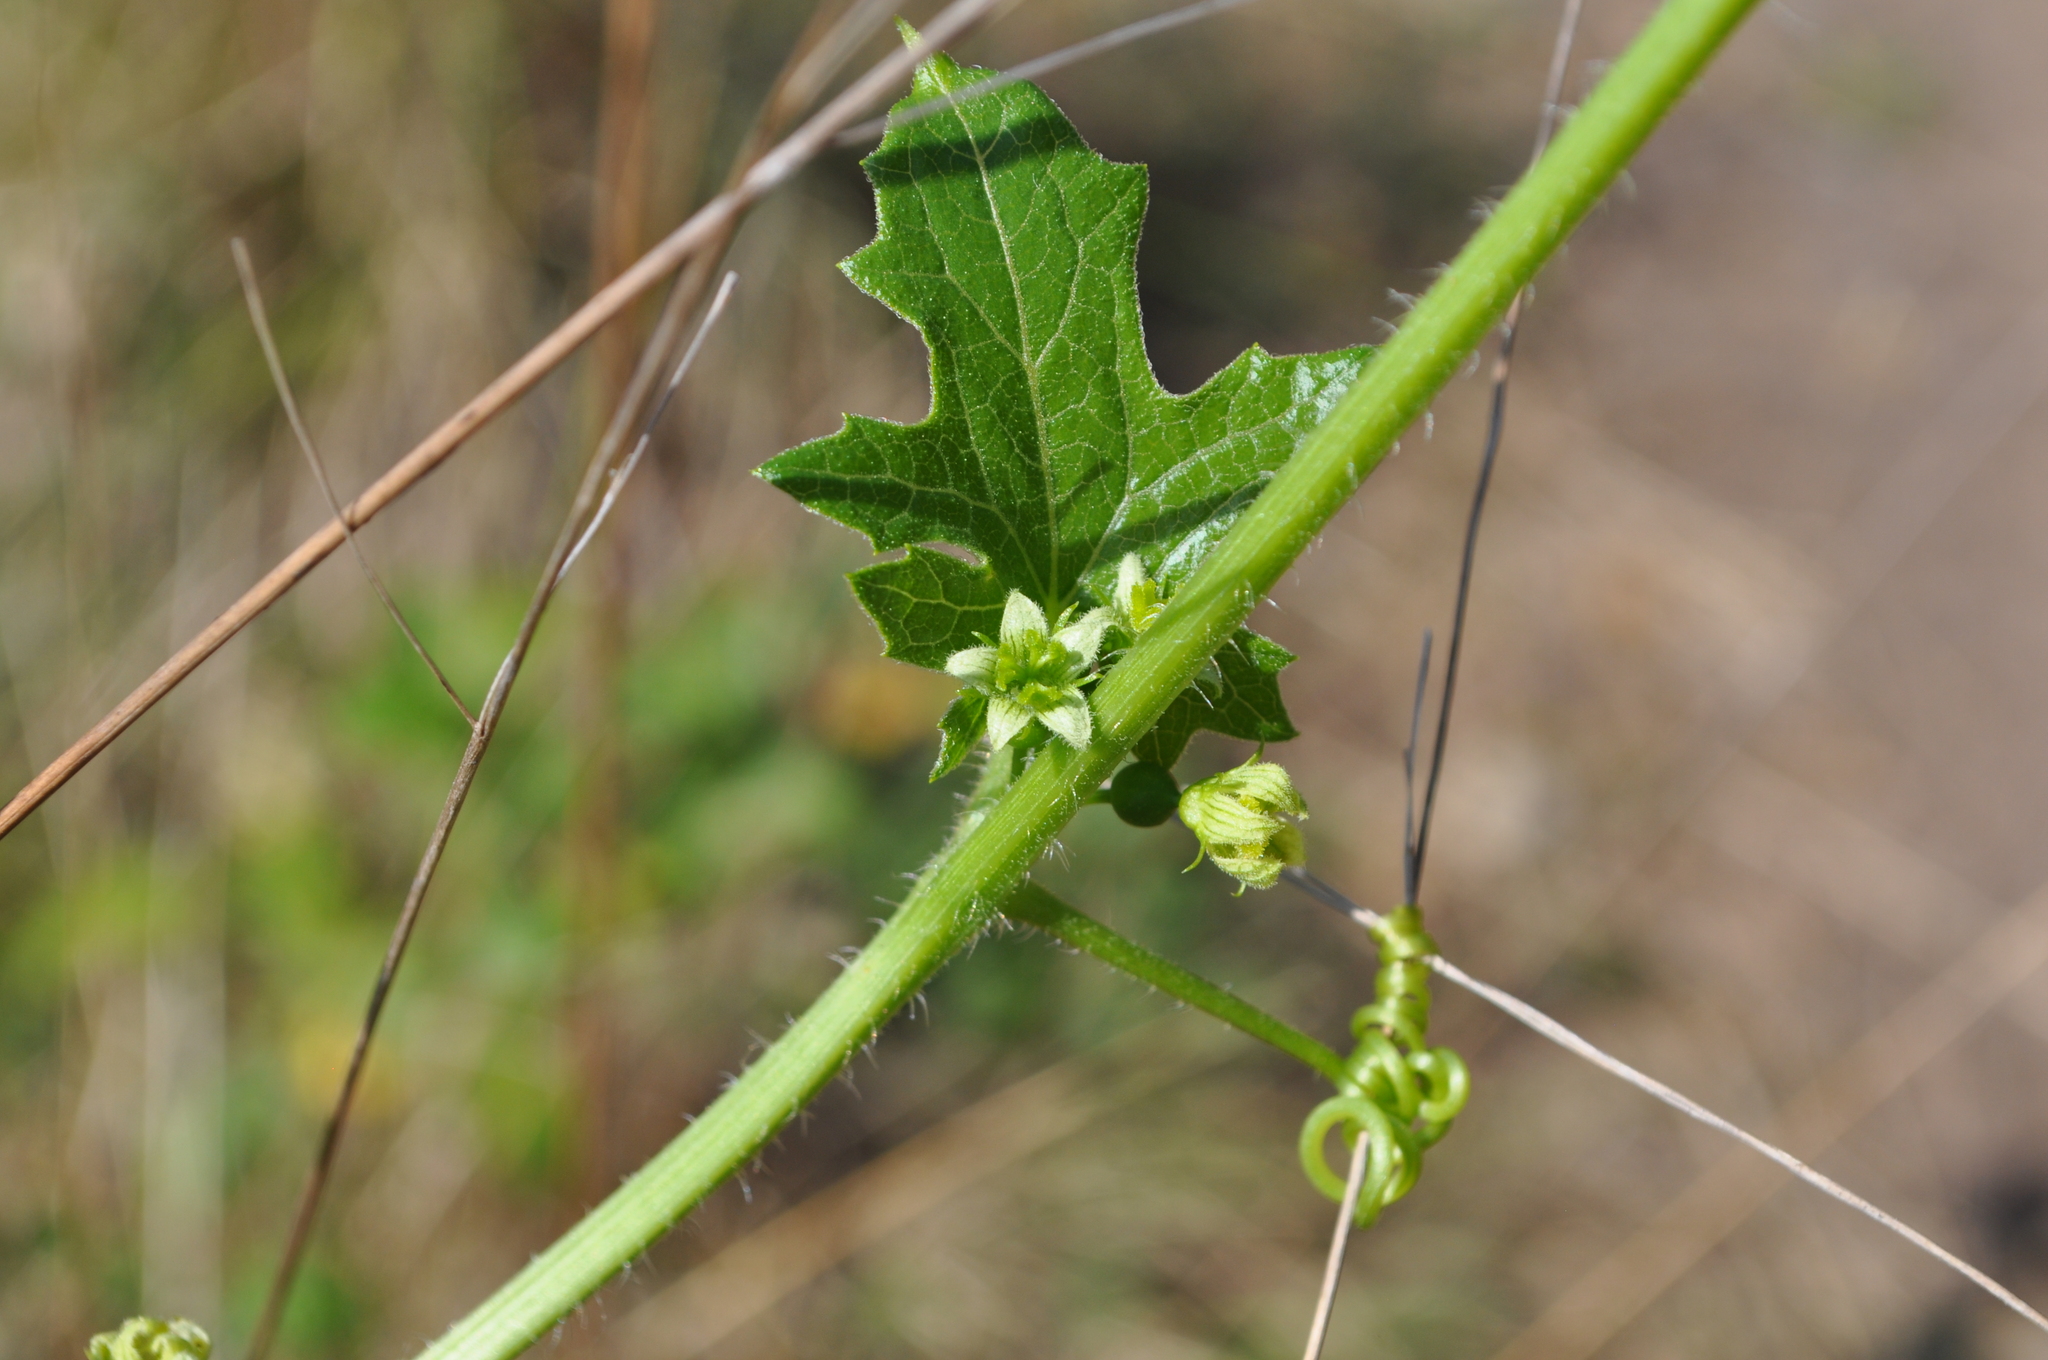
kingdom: Plantae
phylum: Tracheophyta
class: Magnoliopsida
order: Cucurbitales
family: Cucurbitaceae
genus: Bryonia
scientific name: Bryonia dioica
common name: White bryony
